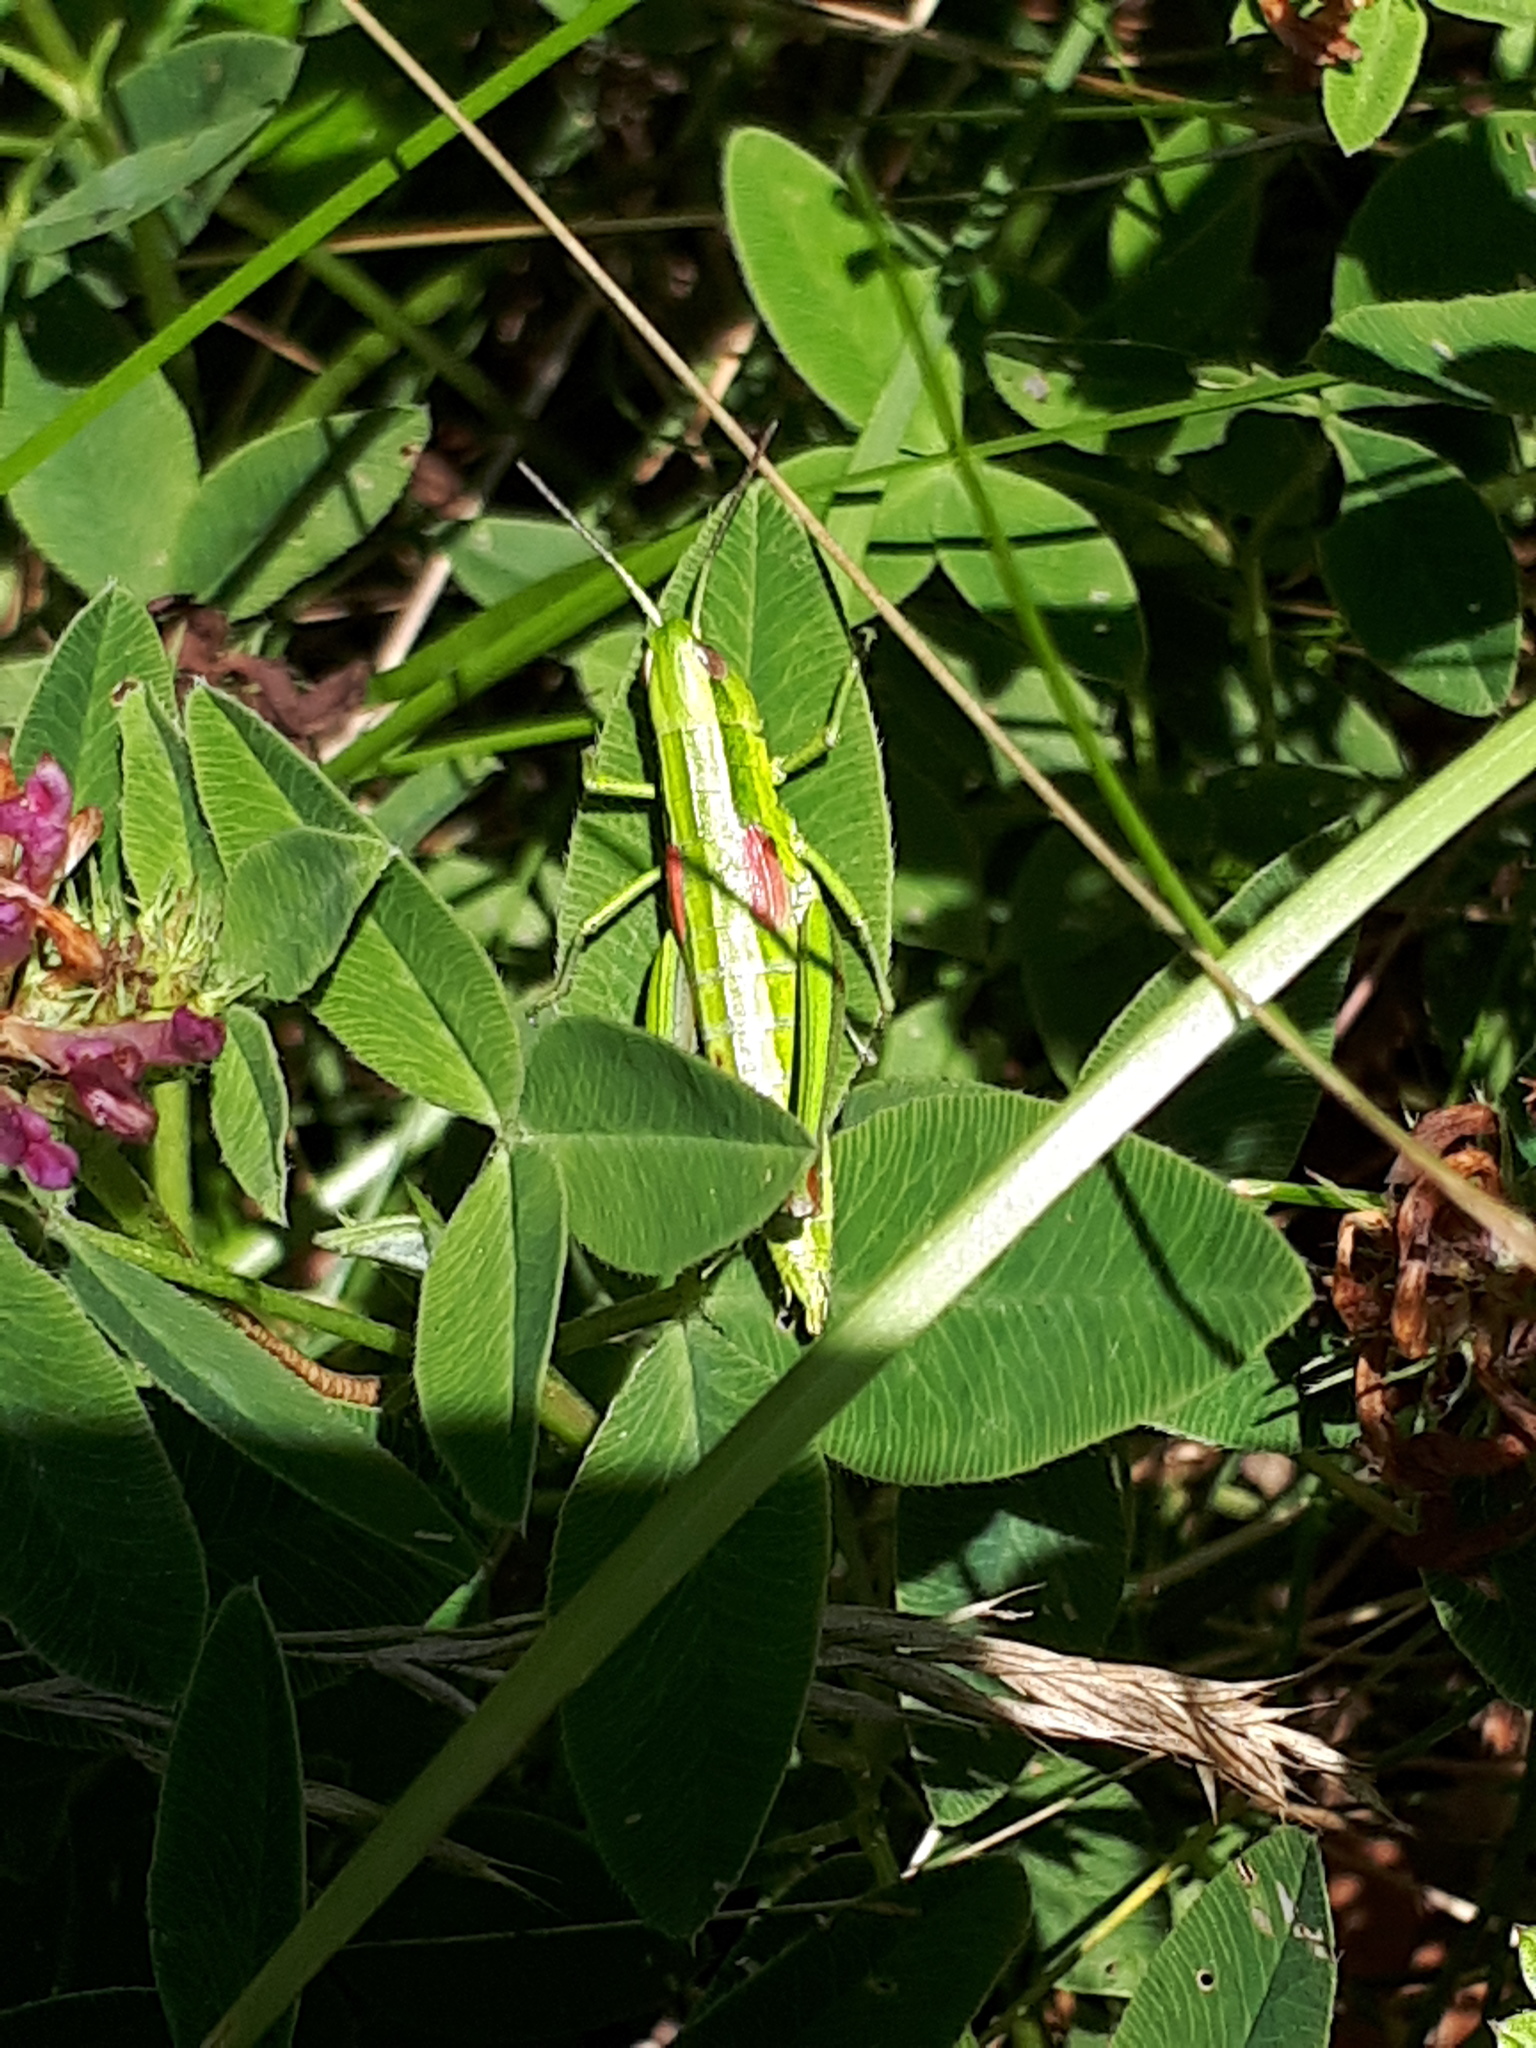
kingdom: Animalia
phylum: Arthropoda
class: Insecta
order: Orthoptera
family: Acrididae
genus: Euthystira
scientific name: Euthystira brachyptera
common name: Small gold grasshopper
